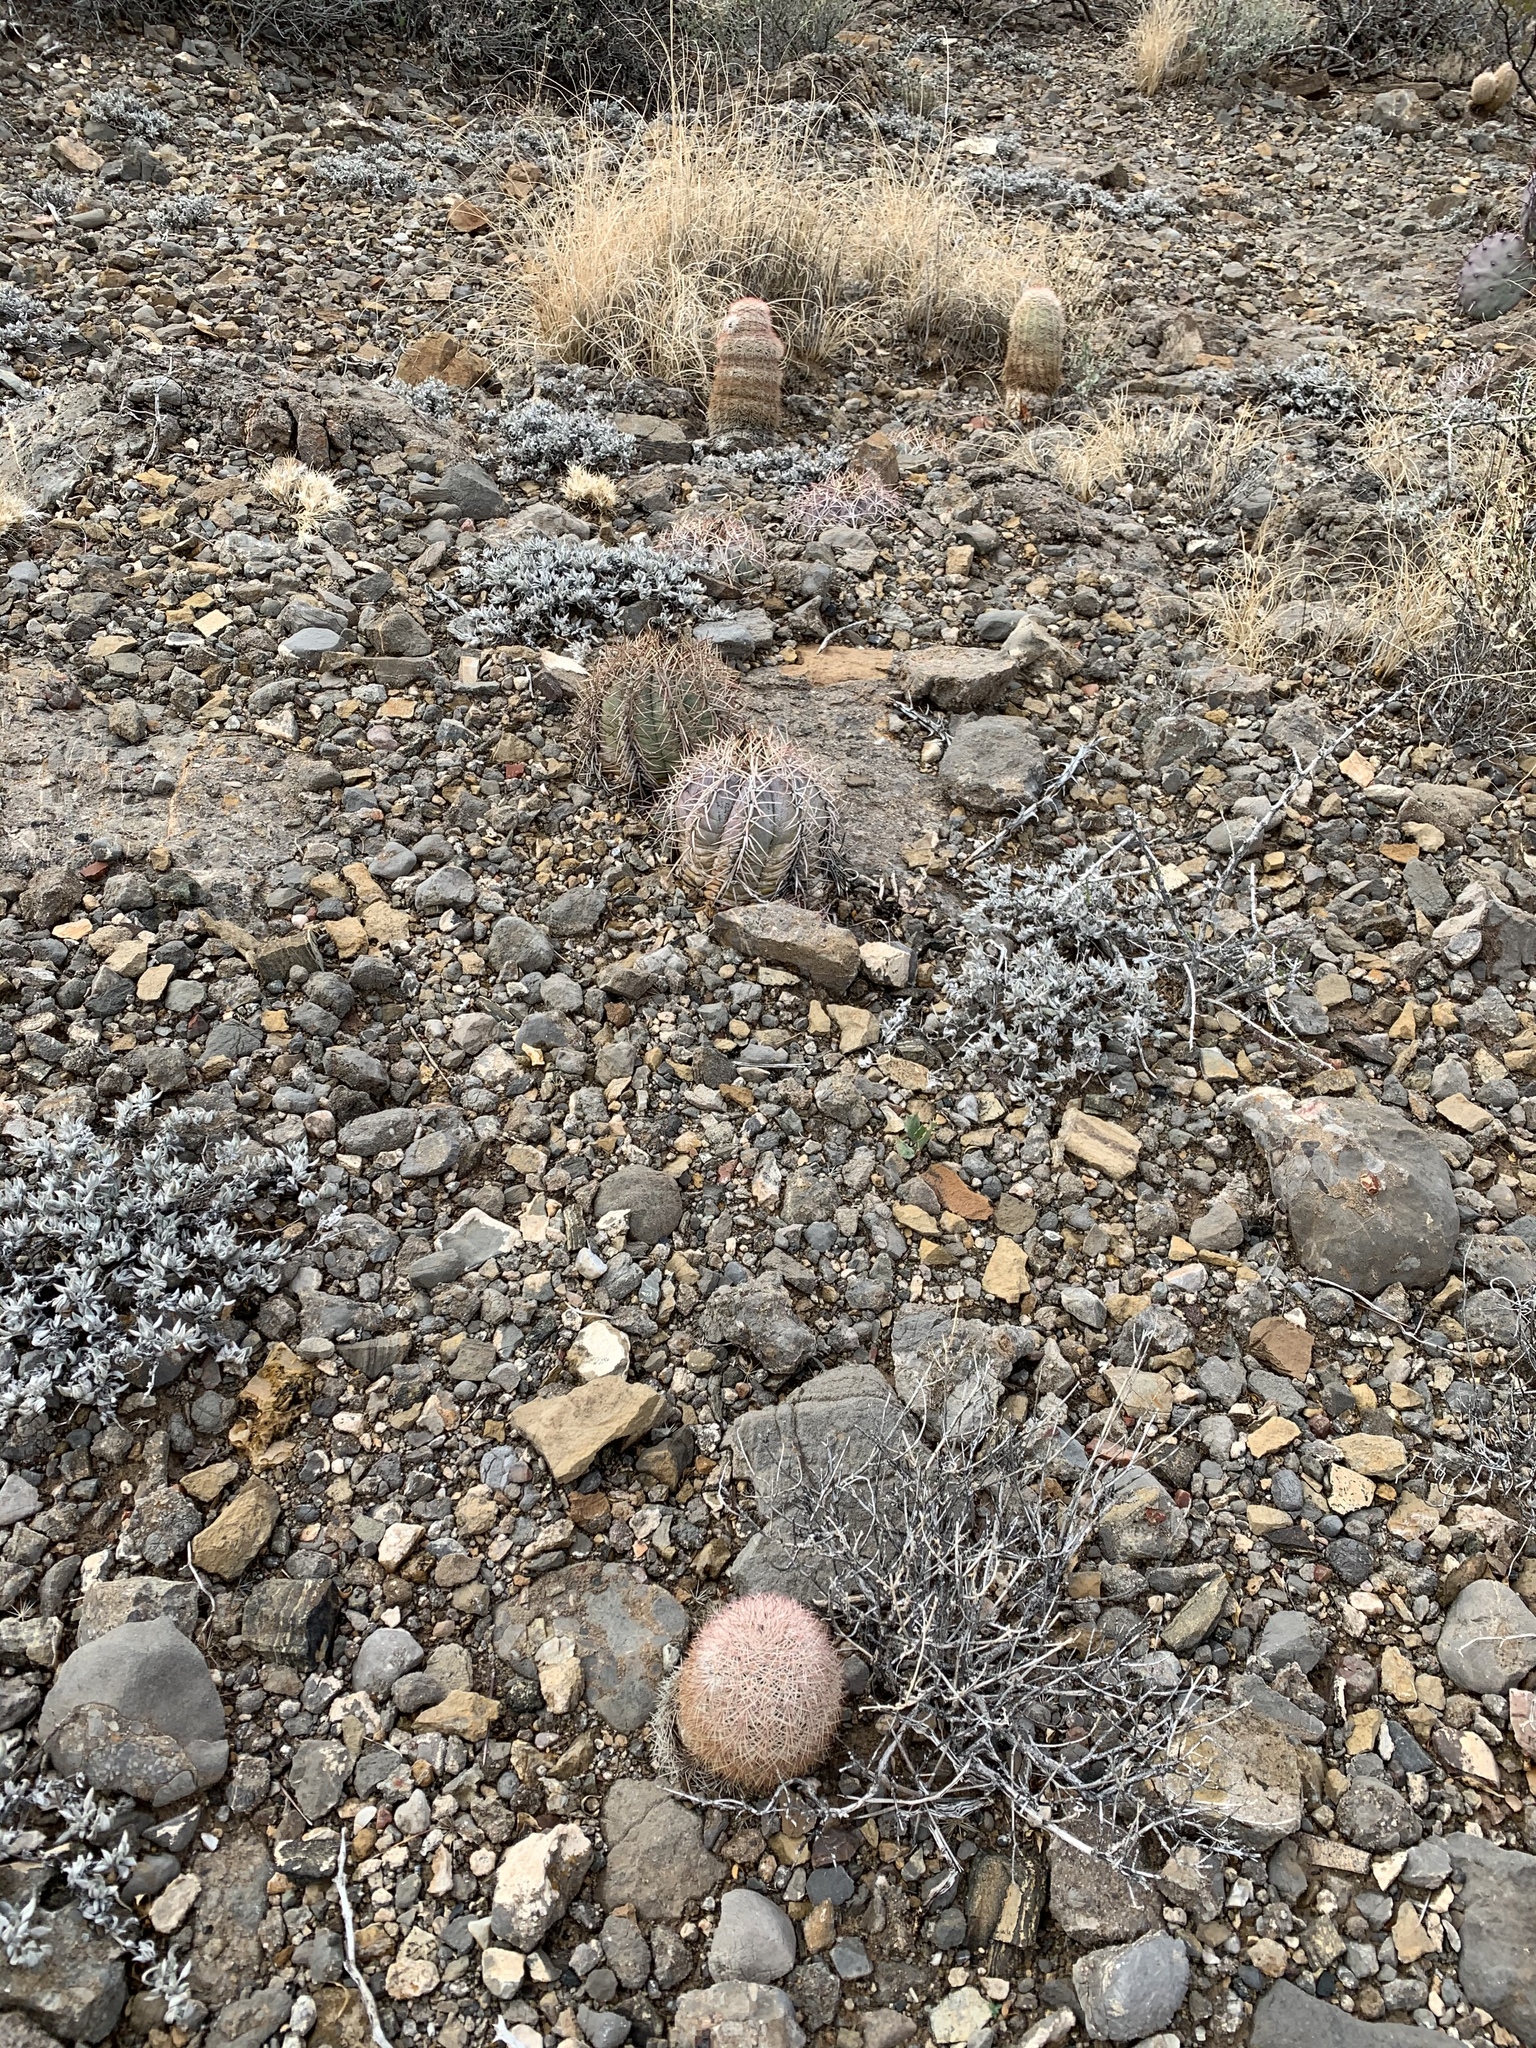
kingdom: Plantae
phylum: Tracheophyta
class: Magnoliopsida
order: Caryophyllales
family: Cactaceae
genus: Echinocactus
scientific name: Echinocactus horizonthalonius
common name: Devilshead
